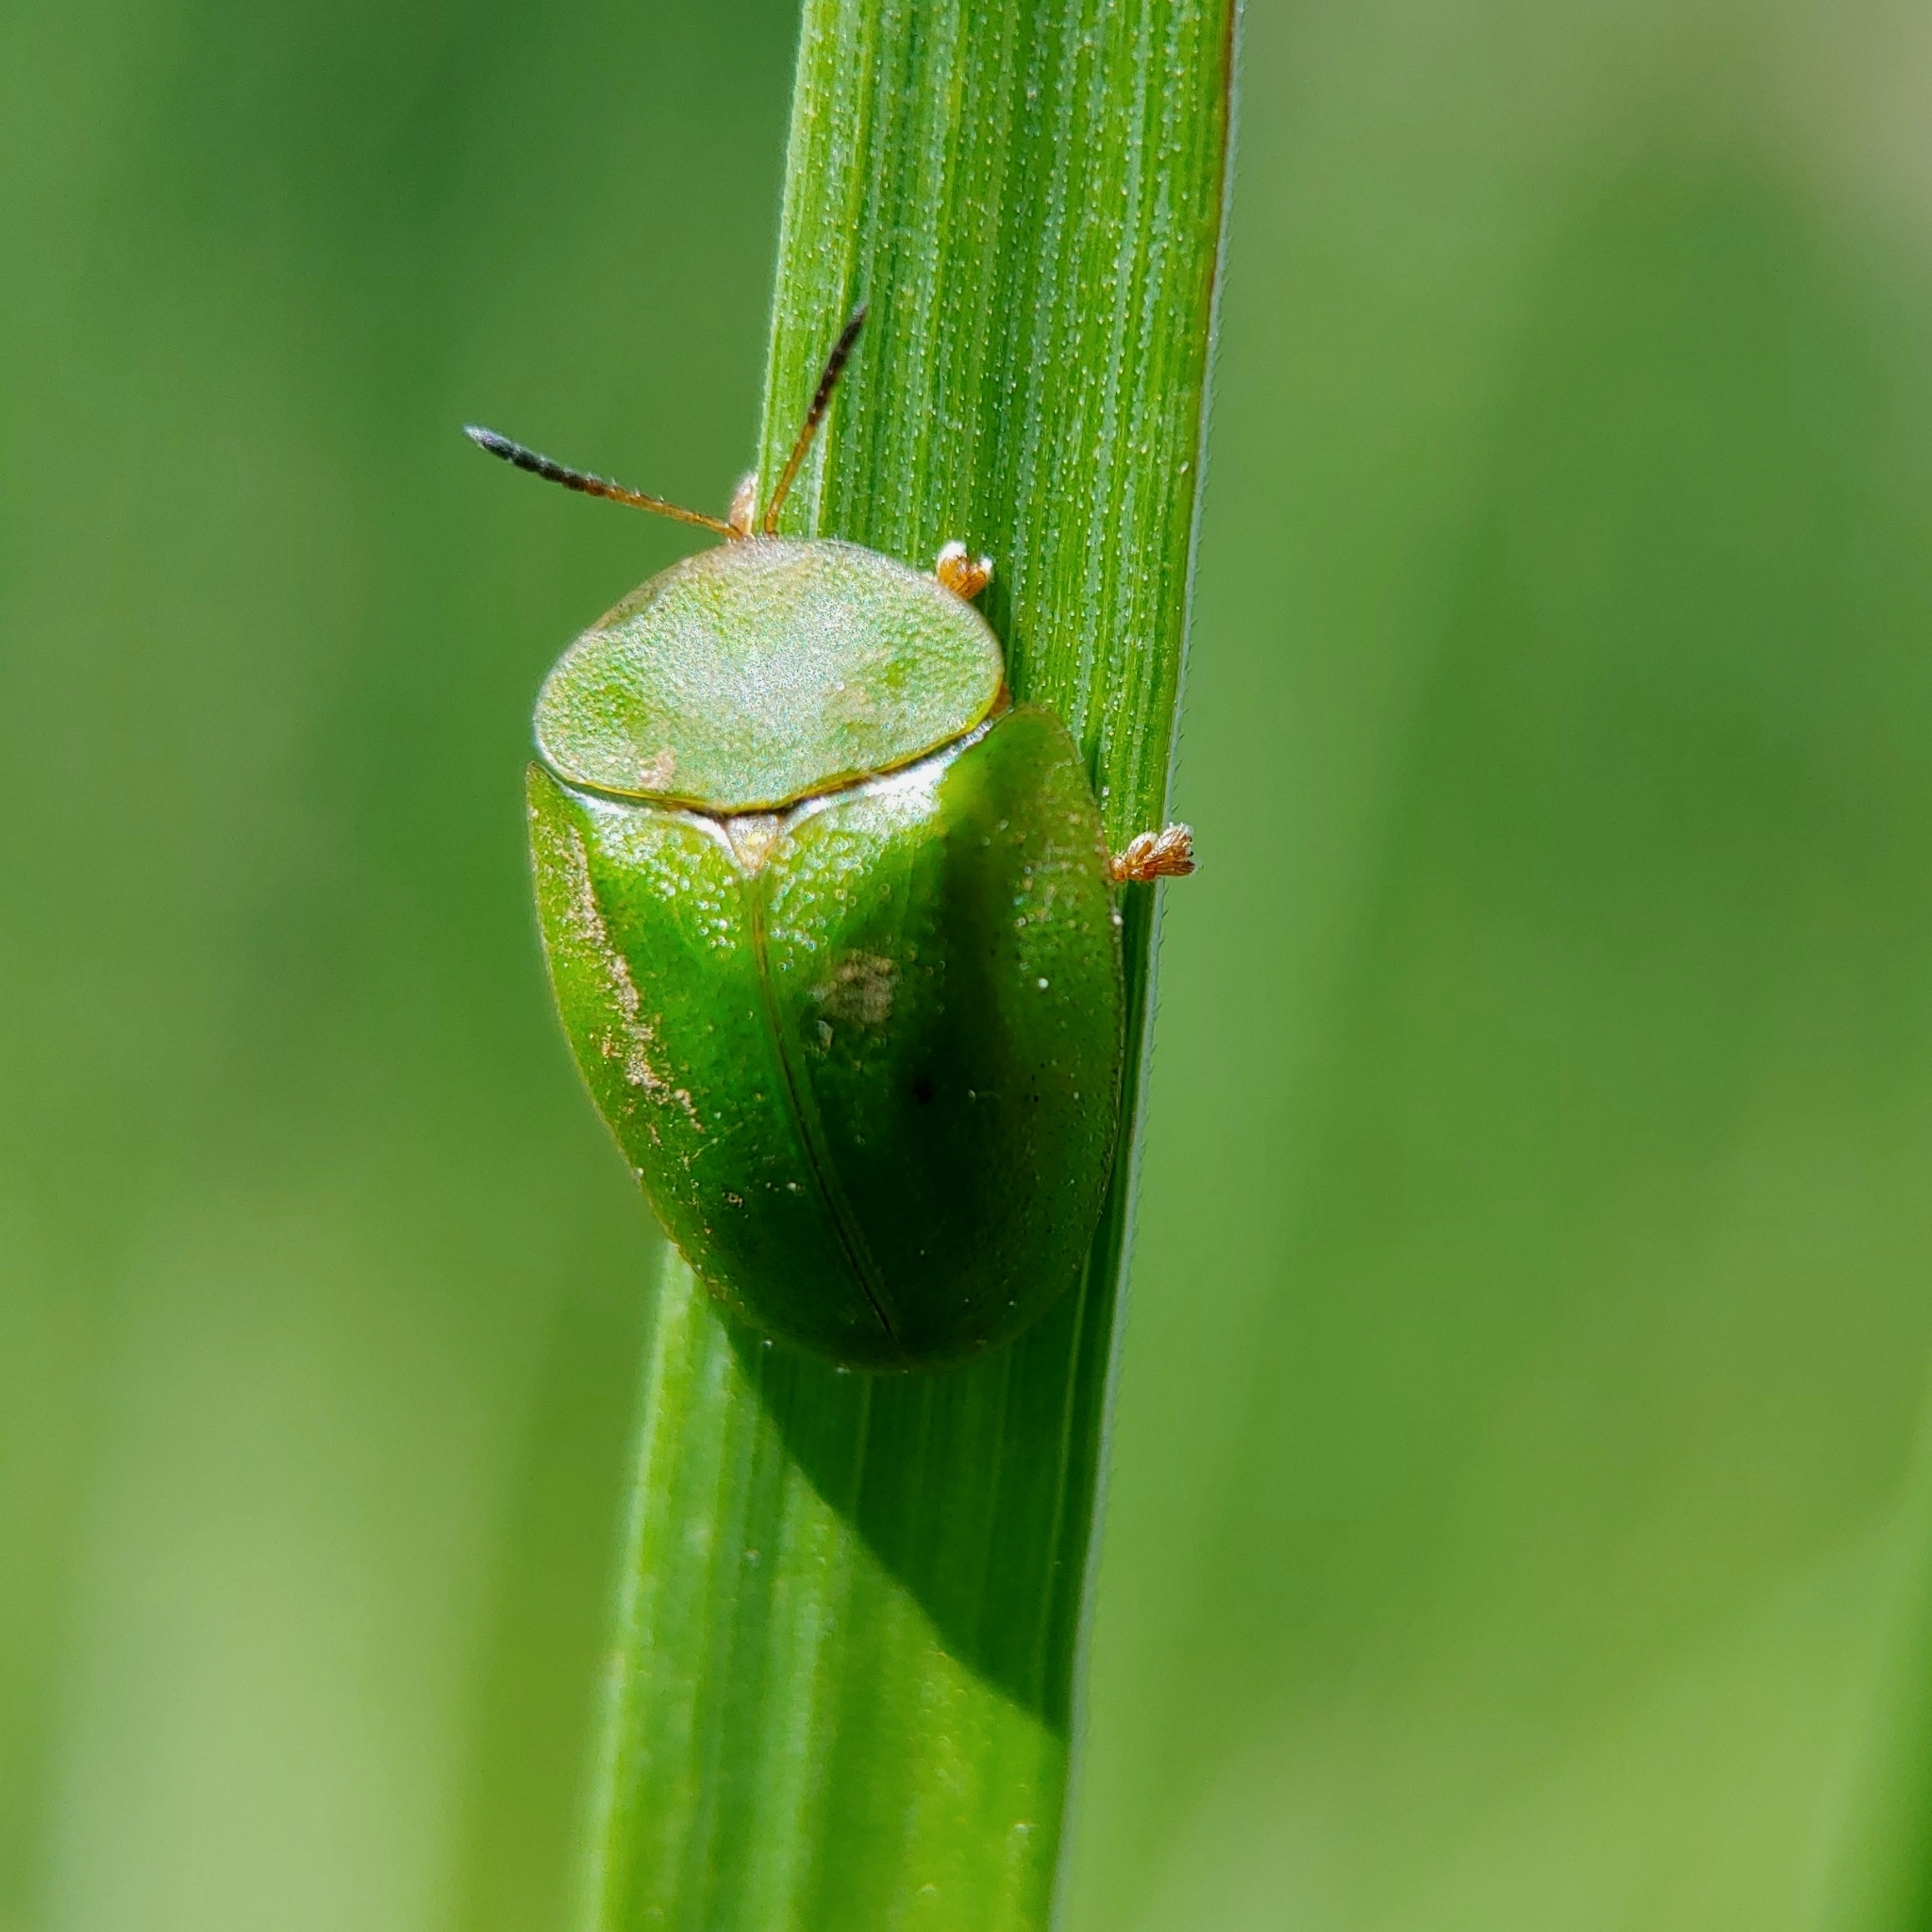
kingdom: Animalia
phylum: Arthropoda
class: Insecta
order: Coleoptera
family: Chrysomelidae
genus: Cassida
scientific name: Cassida viridis
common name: Green tortoise beetle
